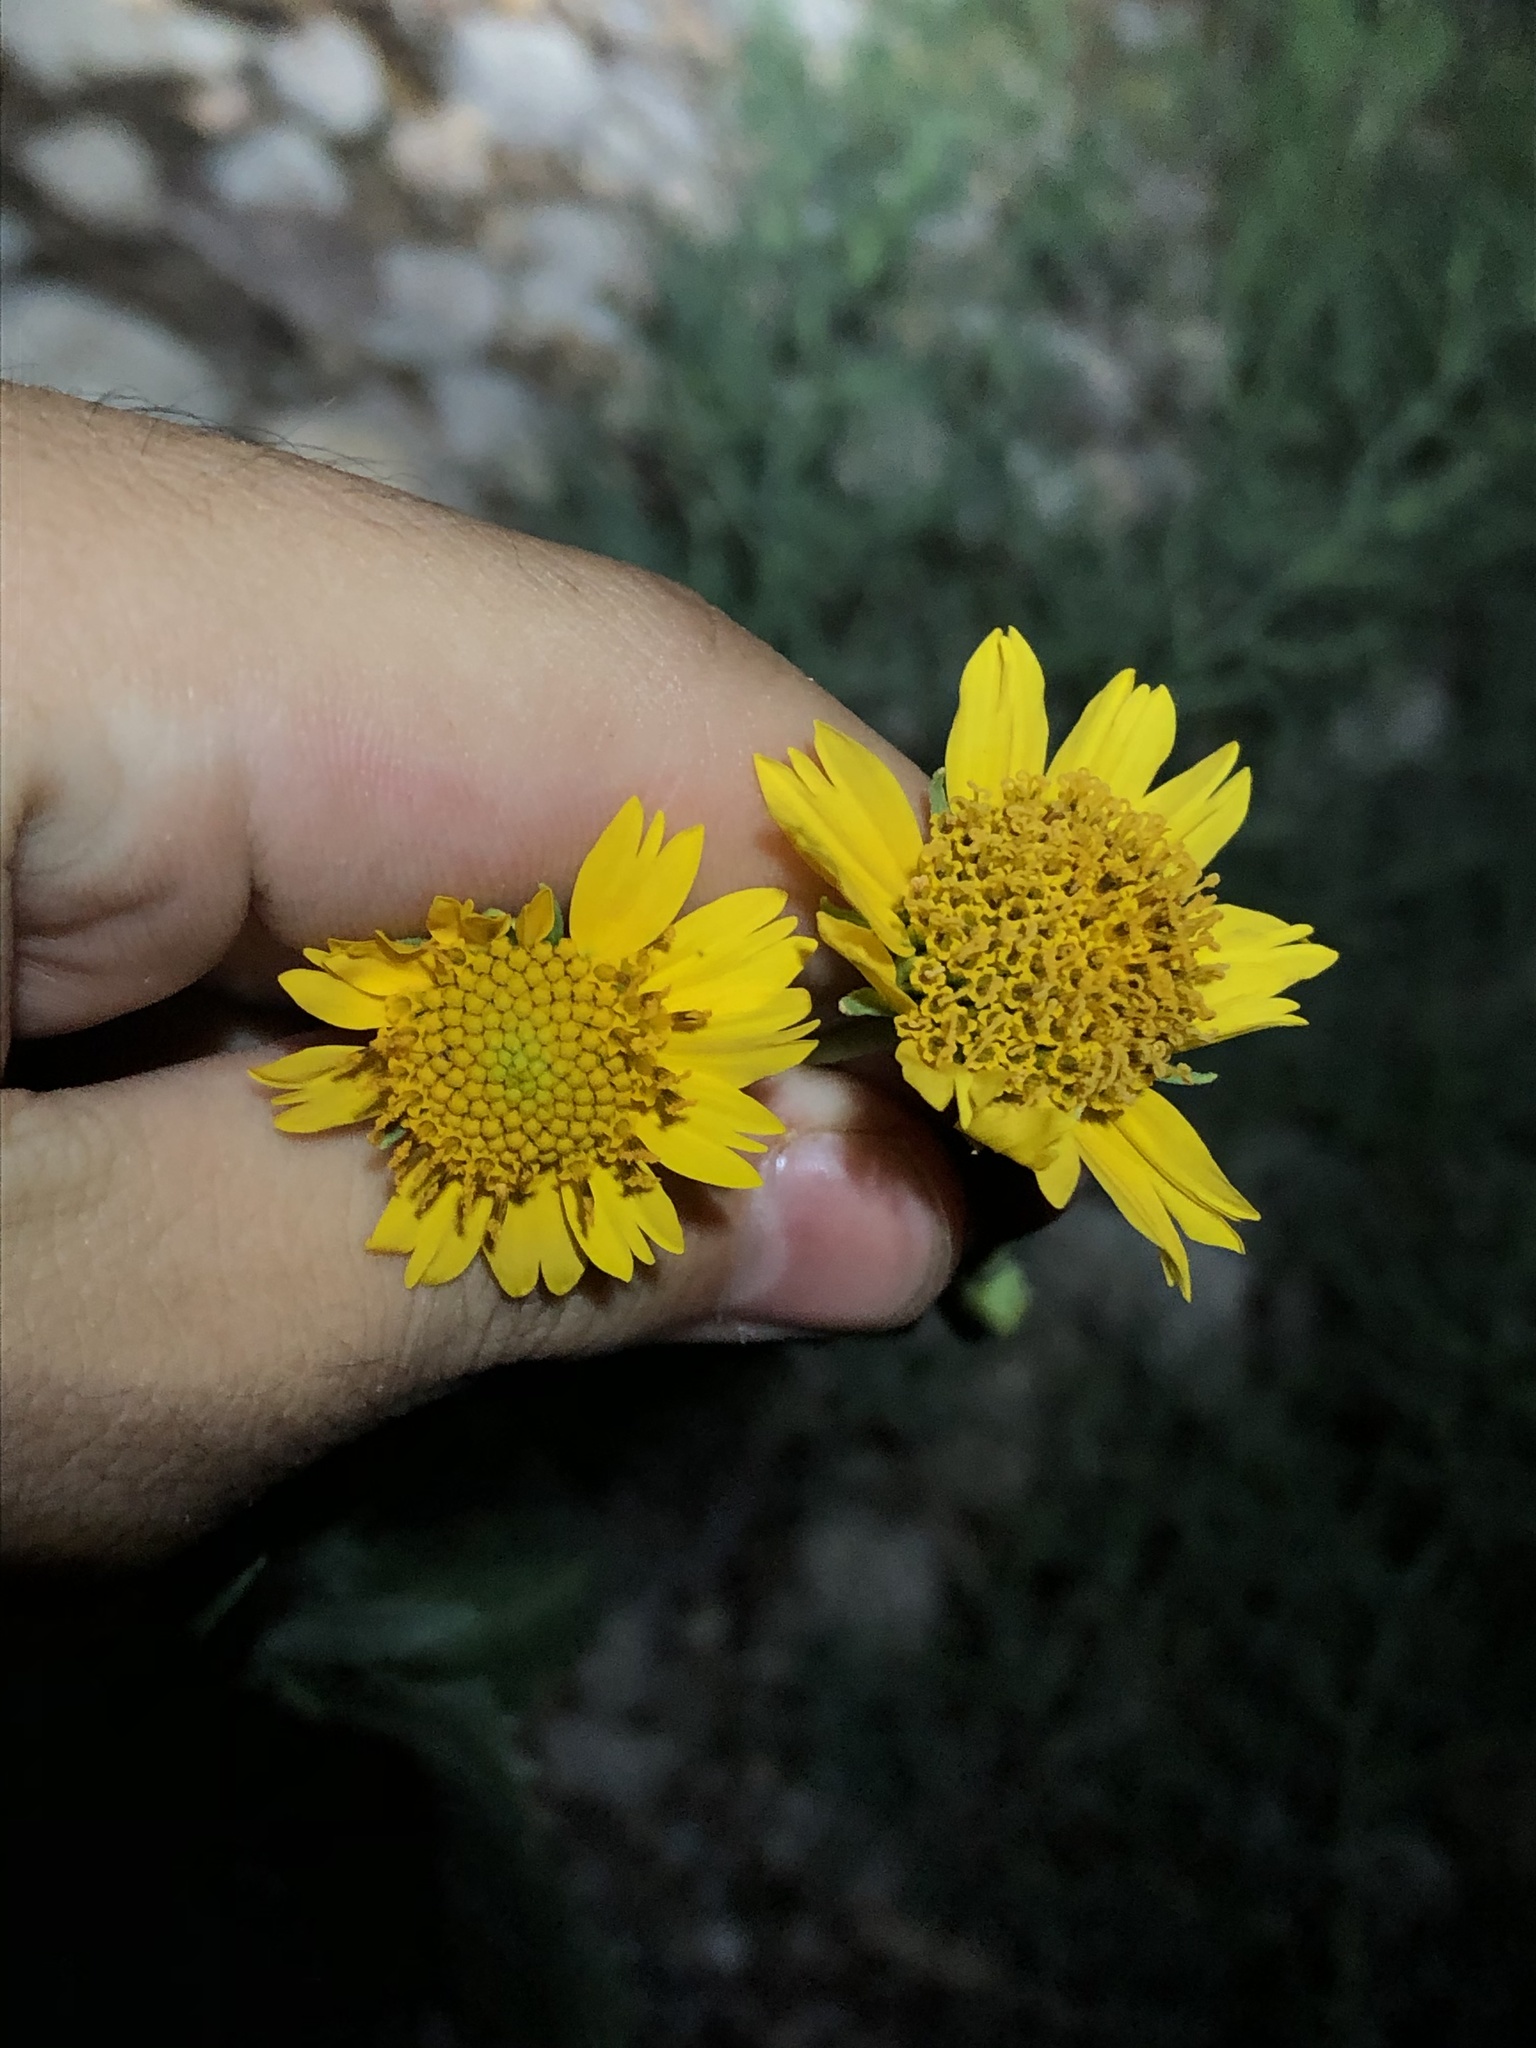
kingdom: Plantae
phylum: Tracheophyta
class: Magnoliopsida
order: Asterales
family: Asteraceae
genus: Verbesina
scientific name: Verbesina encelioides
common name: Golden crownbeard
